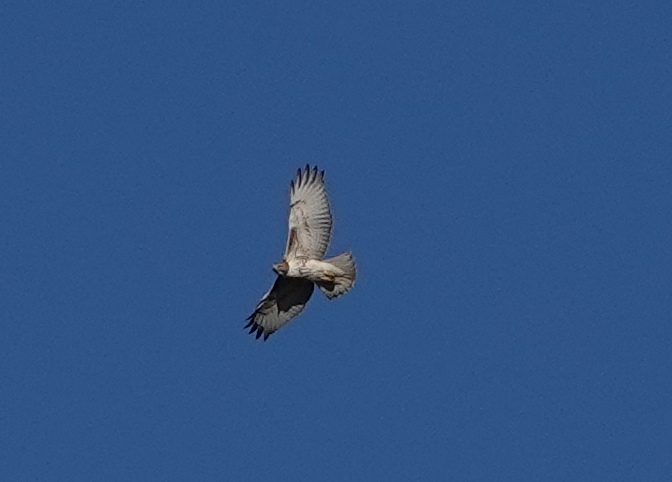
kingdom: Animalia
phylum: Chordata
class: Aves
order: Accipitriformes
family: Accipitridae
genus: Buteo
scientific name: Buteo jamaicensis
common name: Red-tailed hawk
